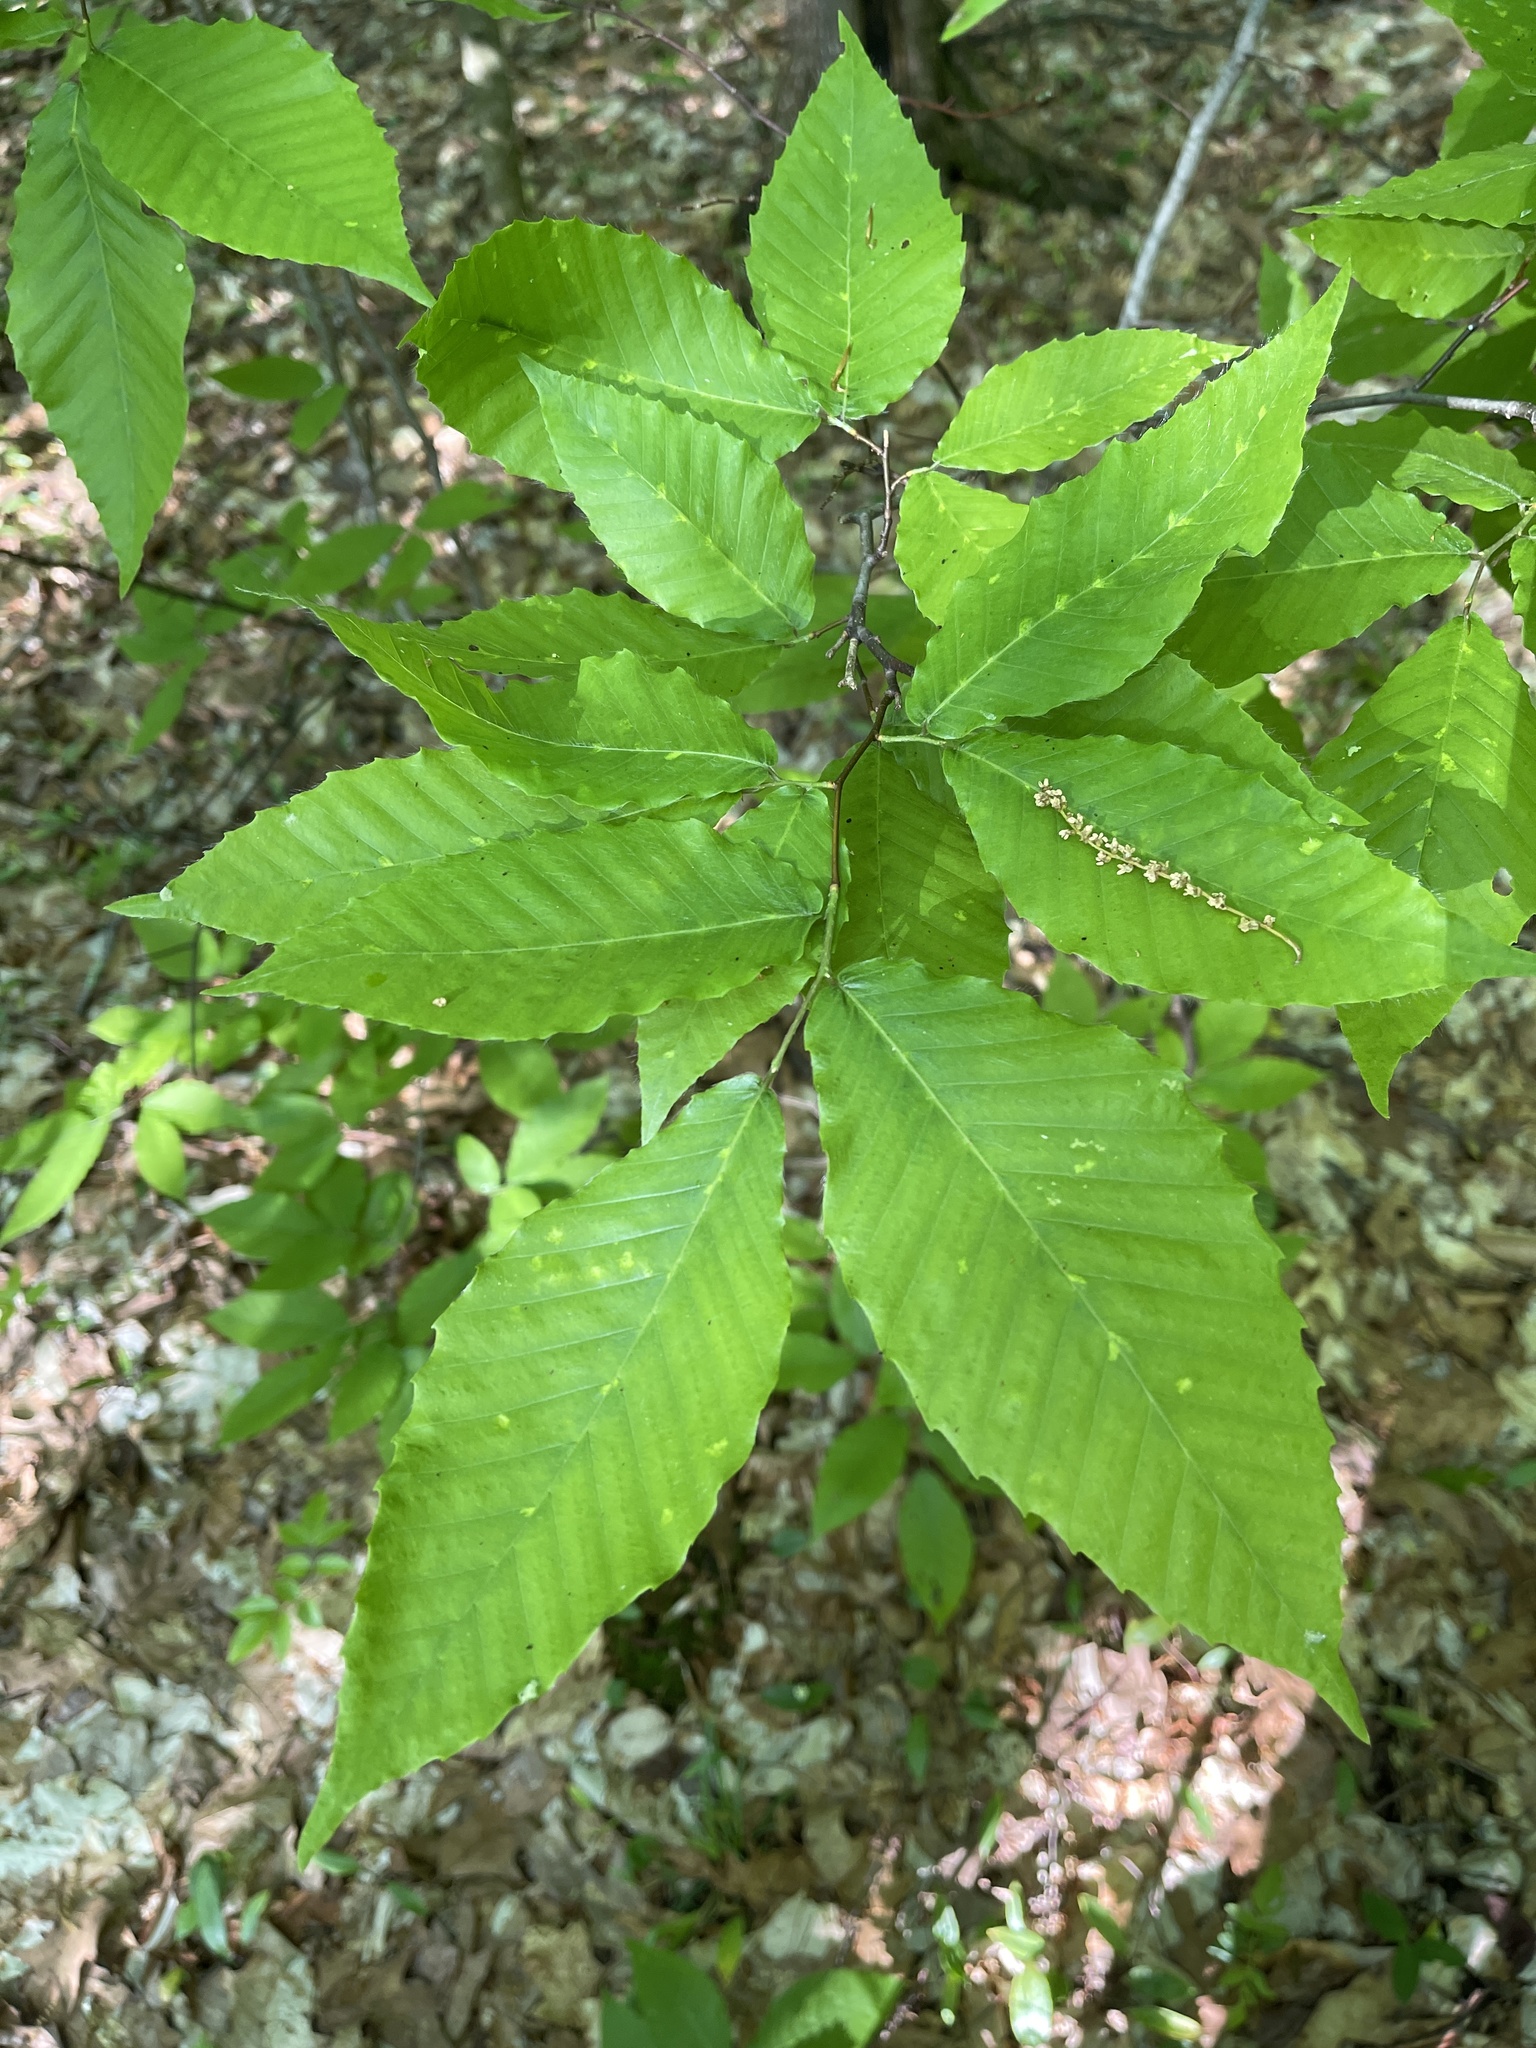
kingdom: Plantae
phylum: Tracheophyta
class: Magnoliopsida
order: Fagales
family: Fagaceae
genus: Fagus
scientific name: Fagus grandifolia
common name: American beech
